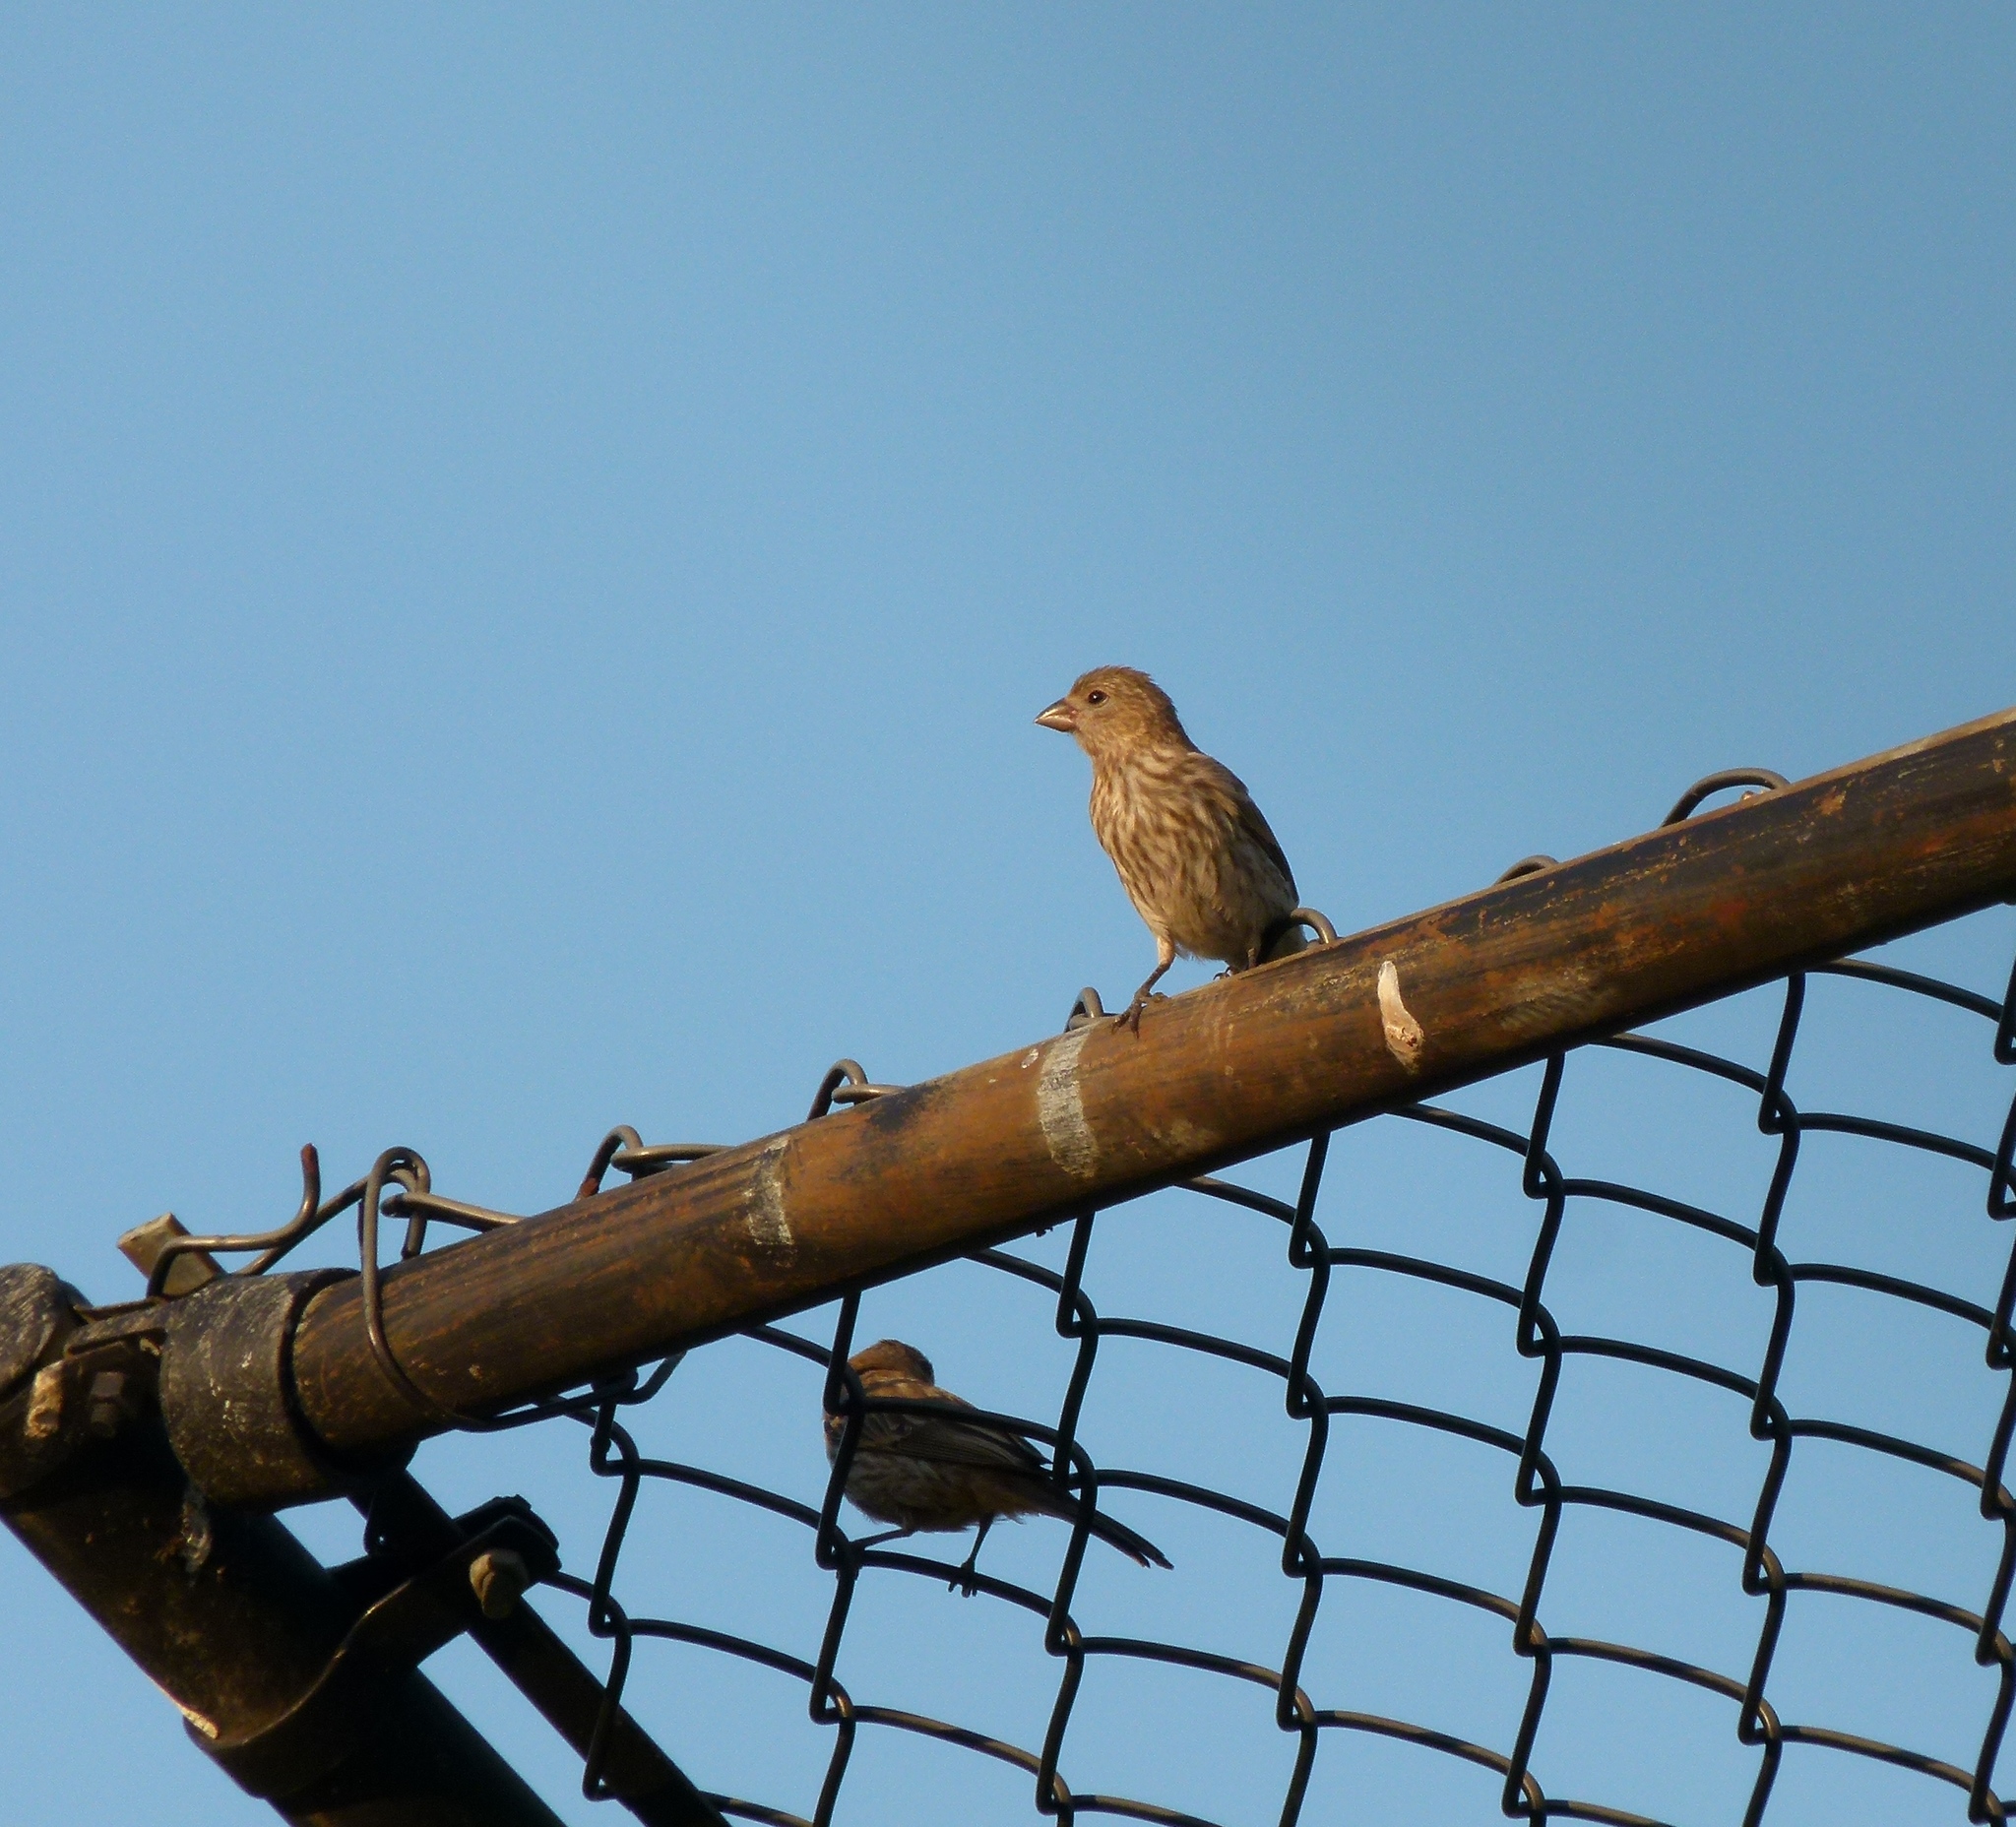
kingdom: Animalia
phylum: Chordata
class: Aves
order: Passeriformes
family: Fringillidae
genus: Haemorhous
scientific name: Haemorhous mexicanus
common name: House finch
